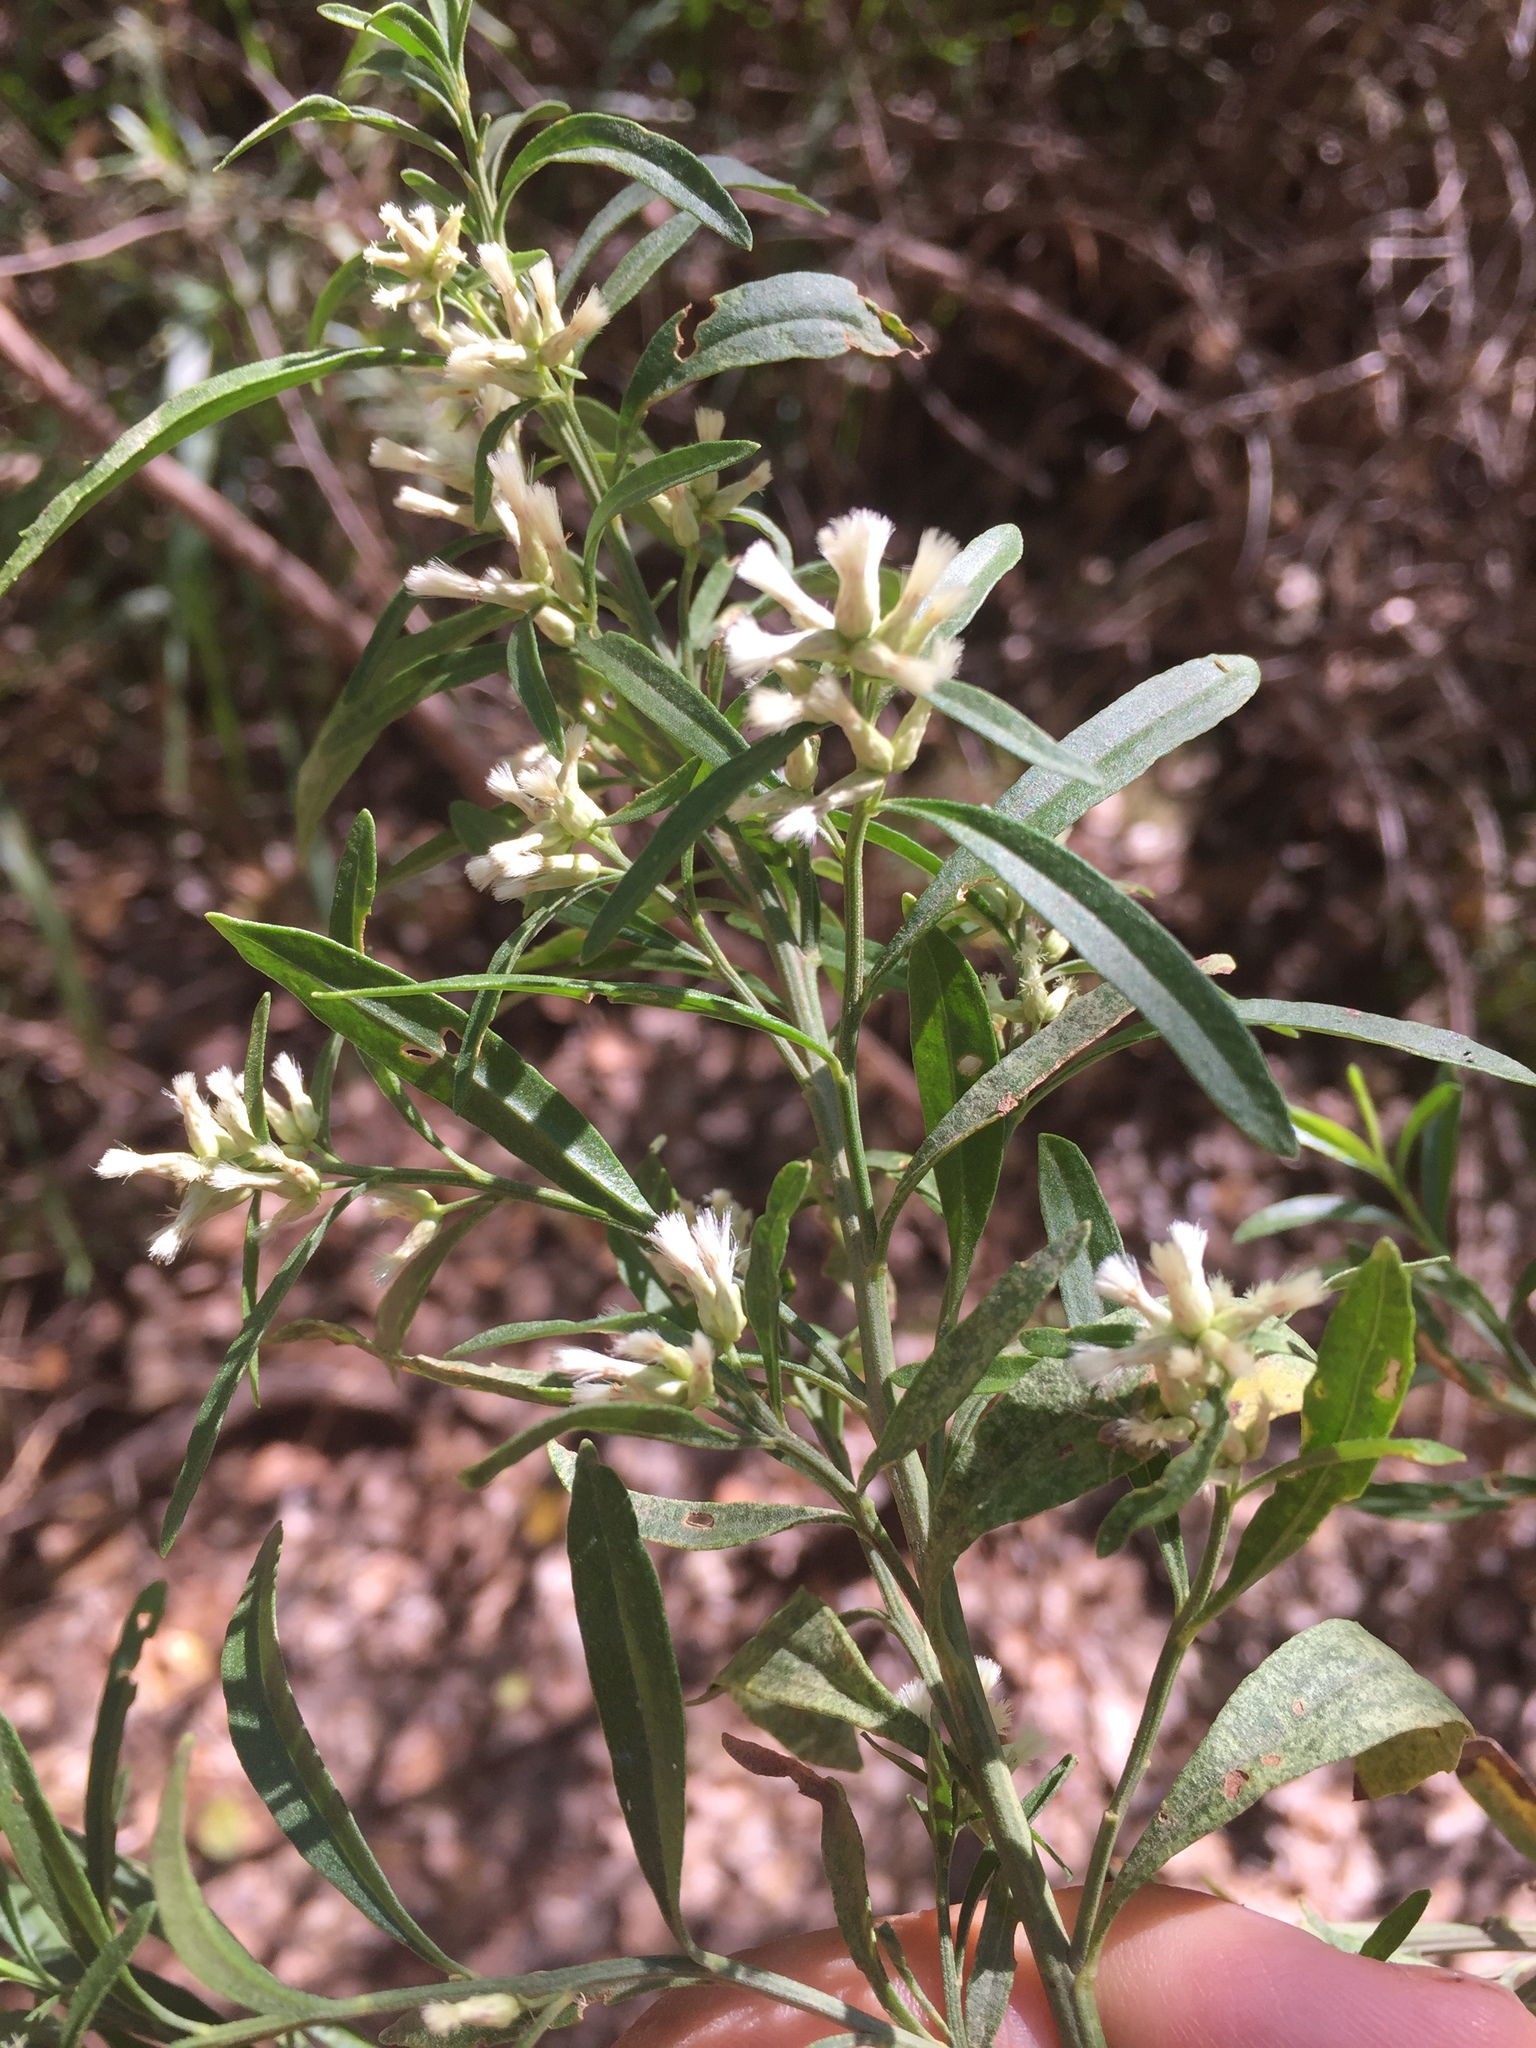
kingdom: Plantae
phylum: Tracheophyta
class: Magnoliopsida
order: Asterales
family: Asteraceae
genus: Baccharis
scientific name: Baccharis salicifolia
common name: Sticky baccharis
